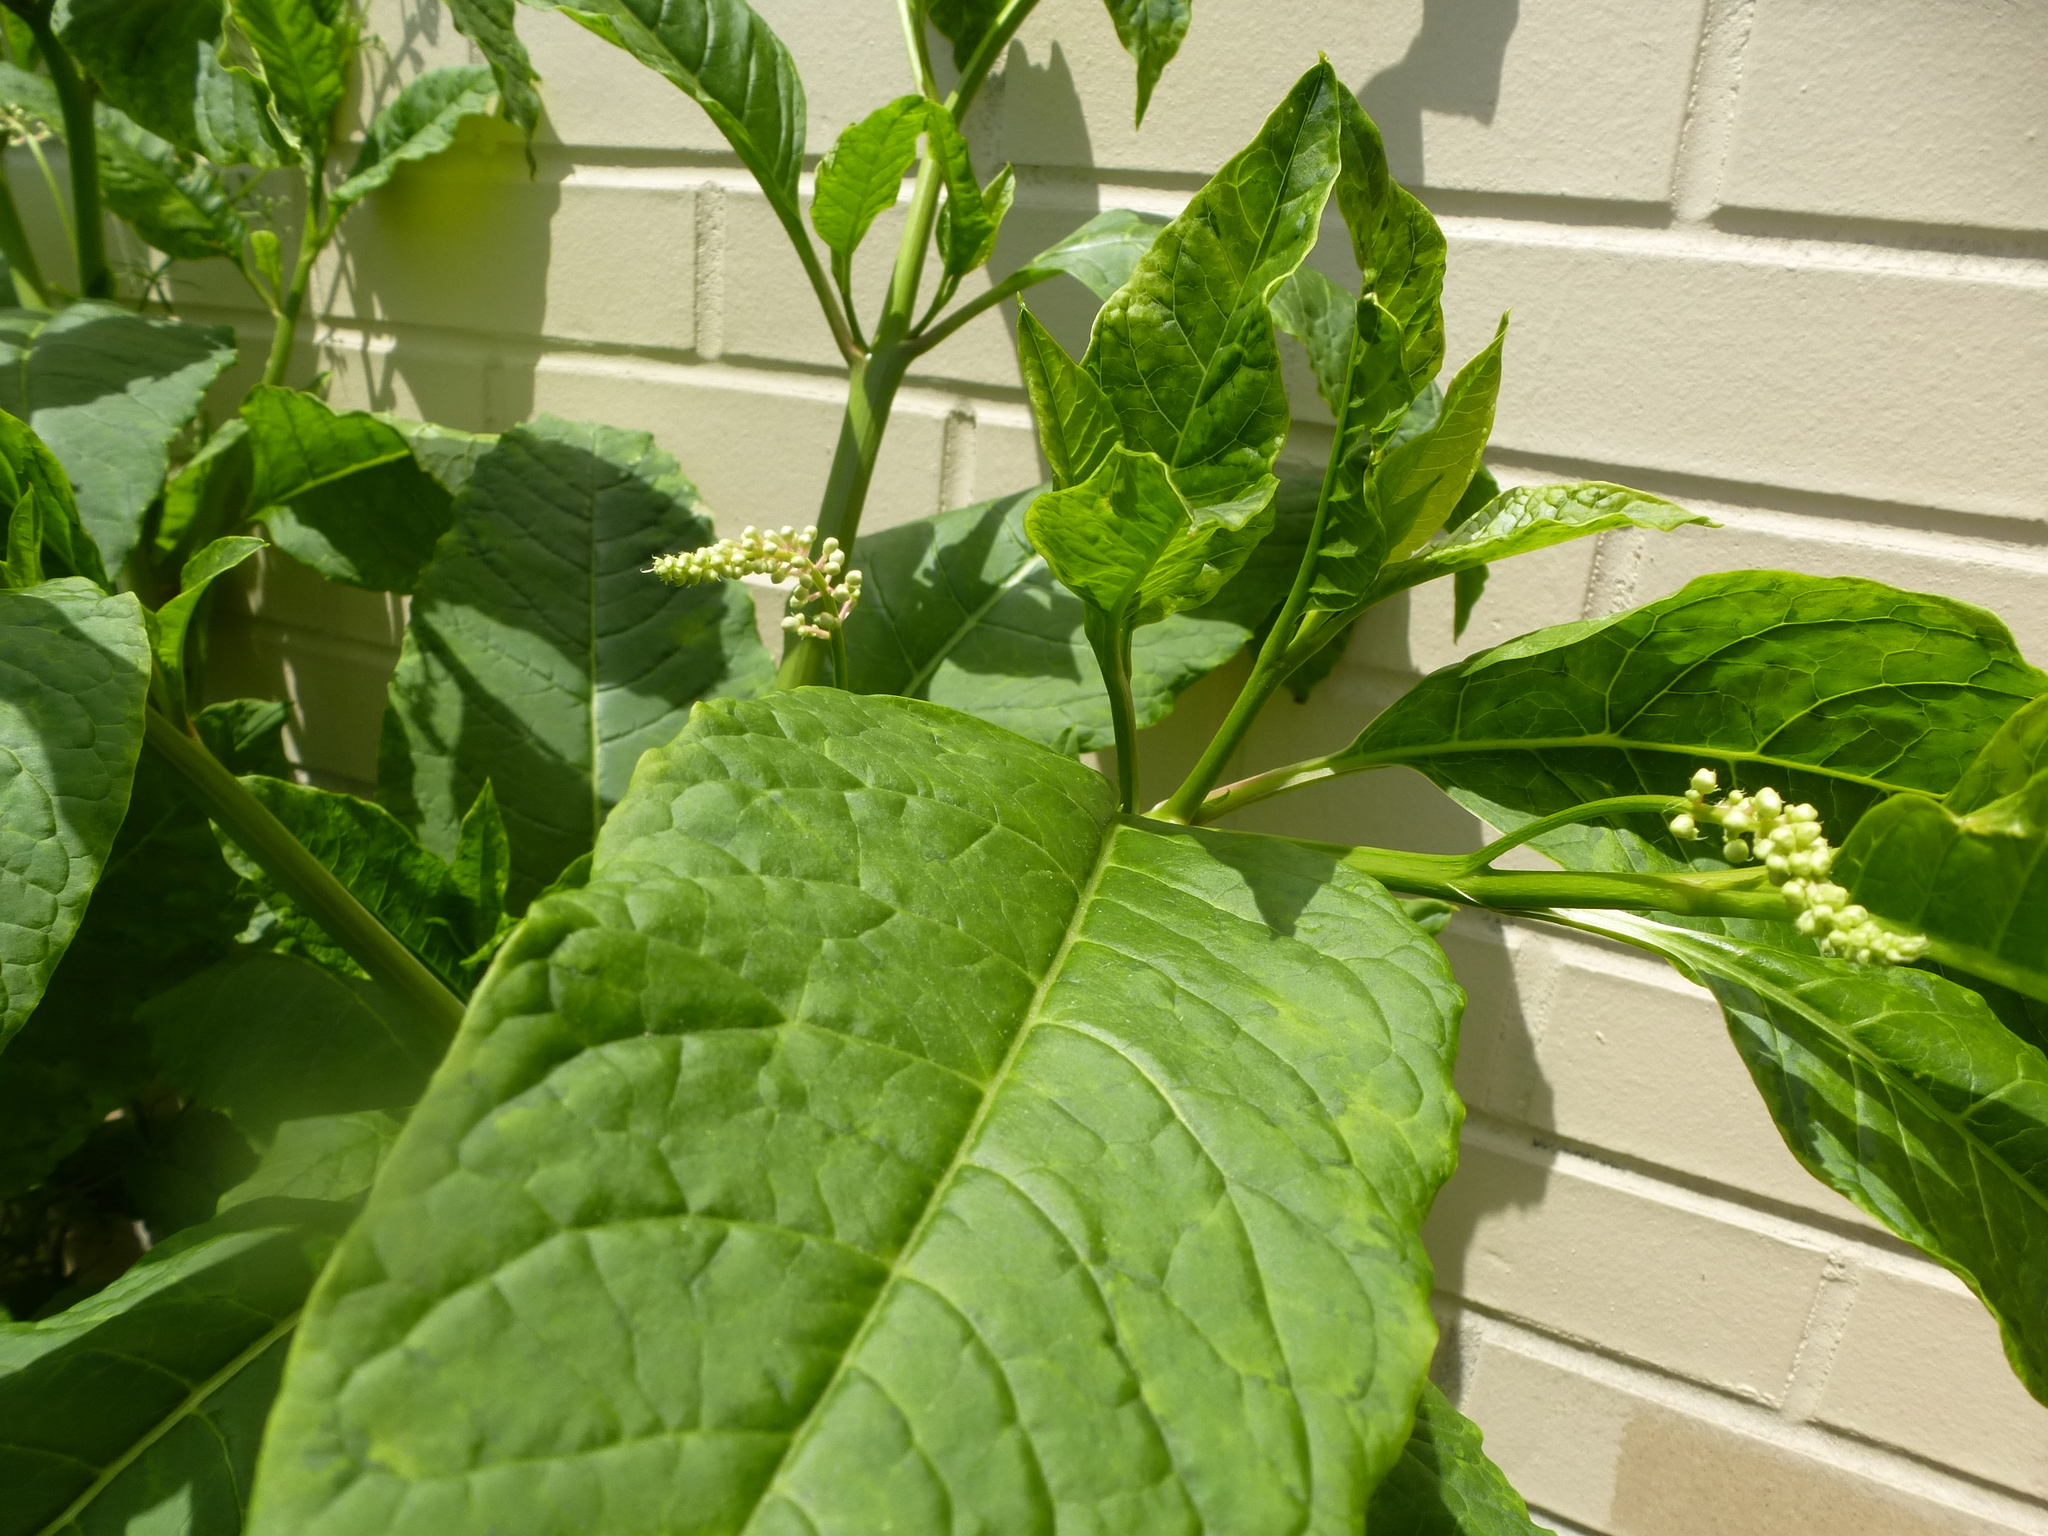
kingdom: Plantae
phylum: Tracheophyta
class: Magnoliopsida
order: Caryophyllales
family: Phytolaccaceae
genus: Phytolacca
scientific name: Phytolacca americana
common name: American pokeweed
